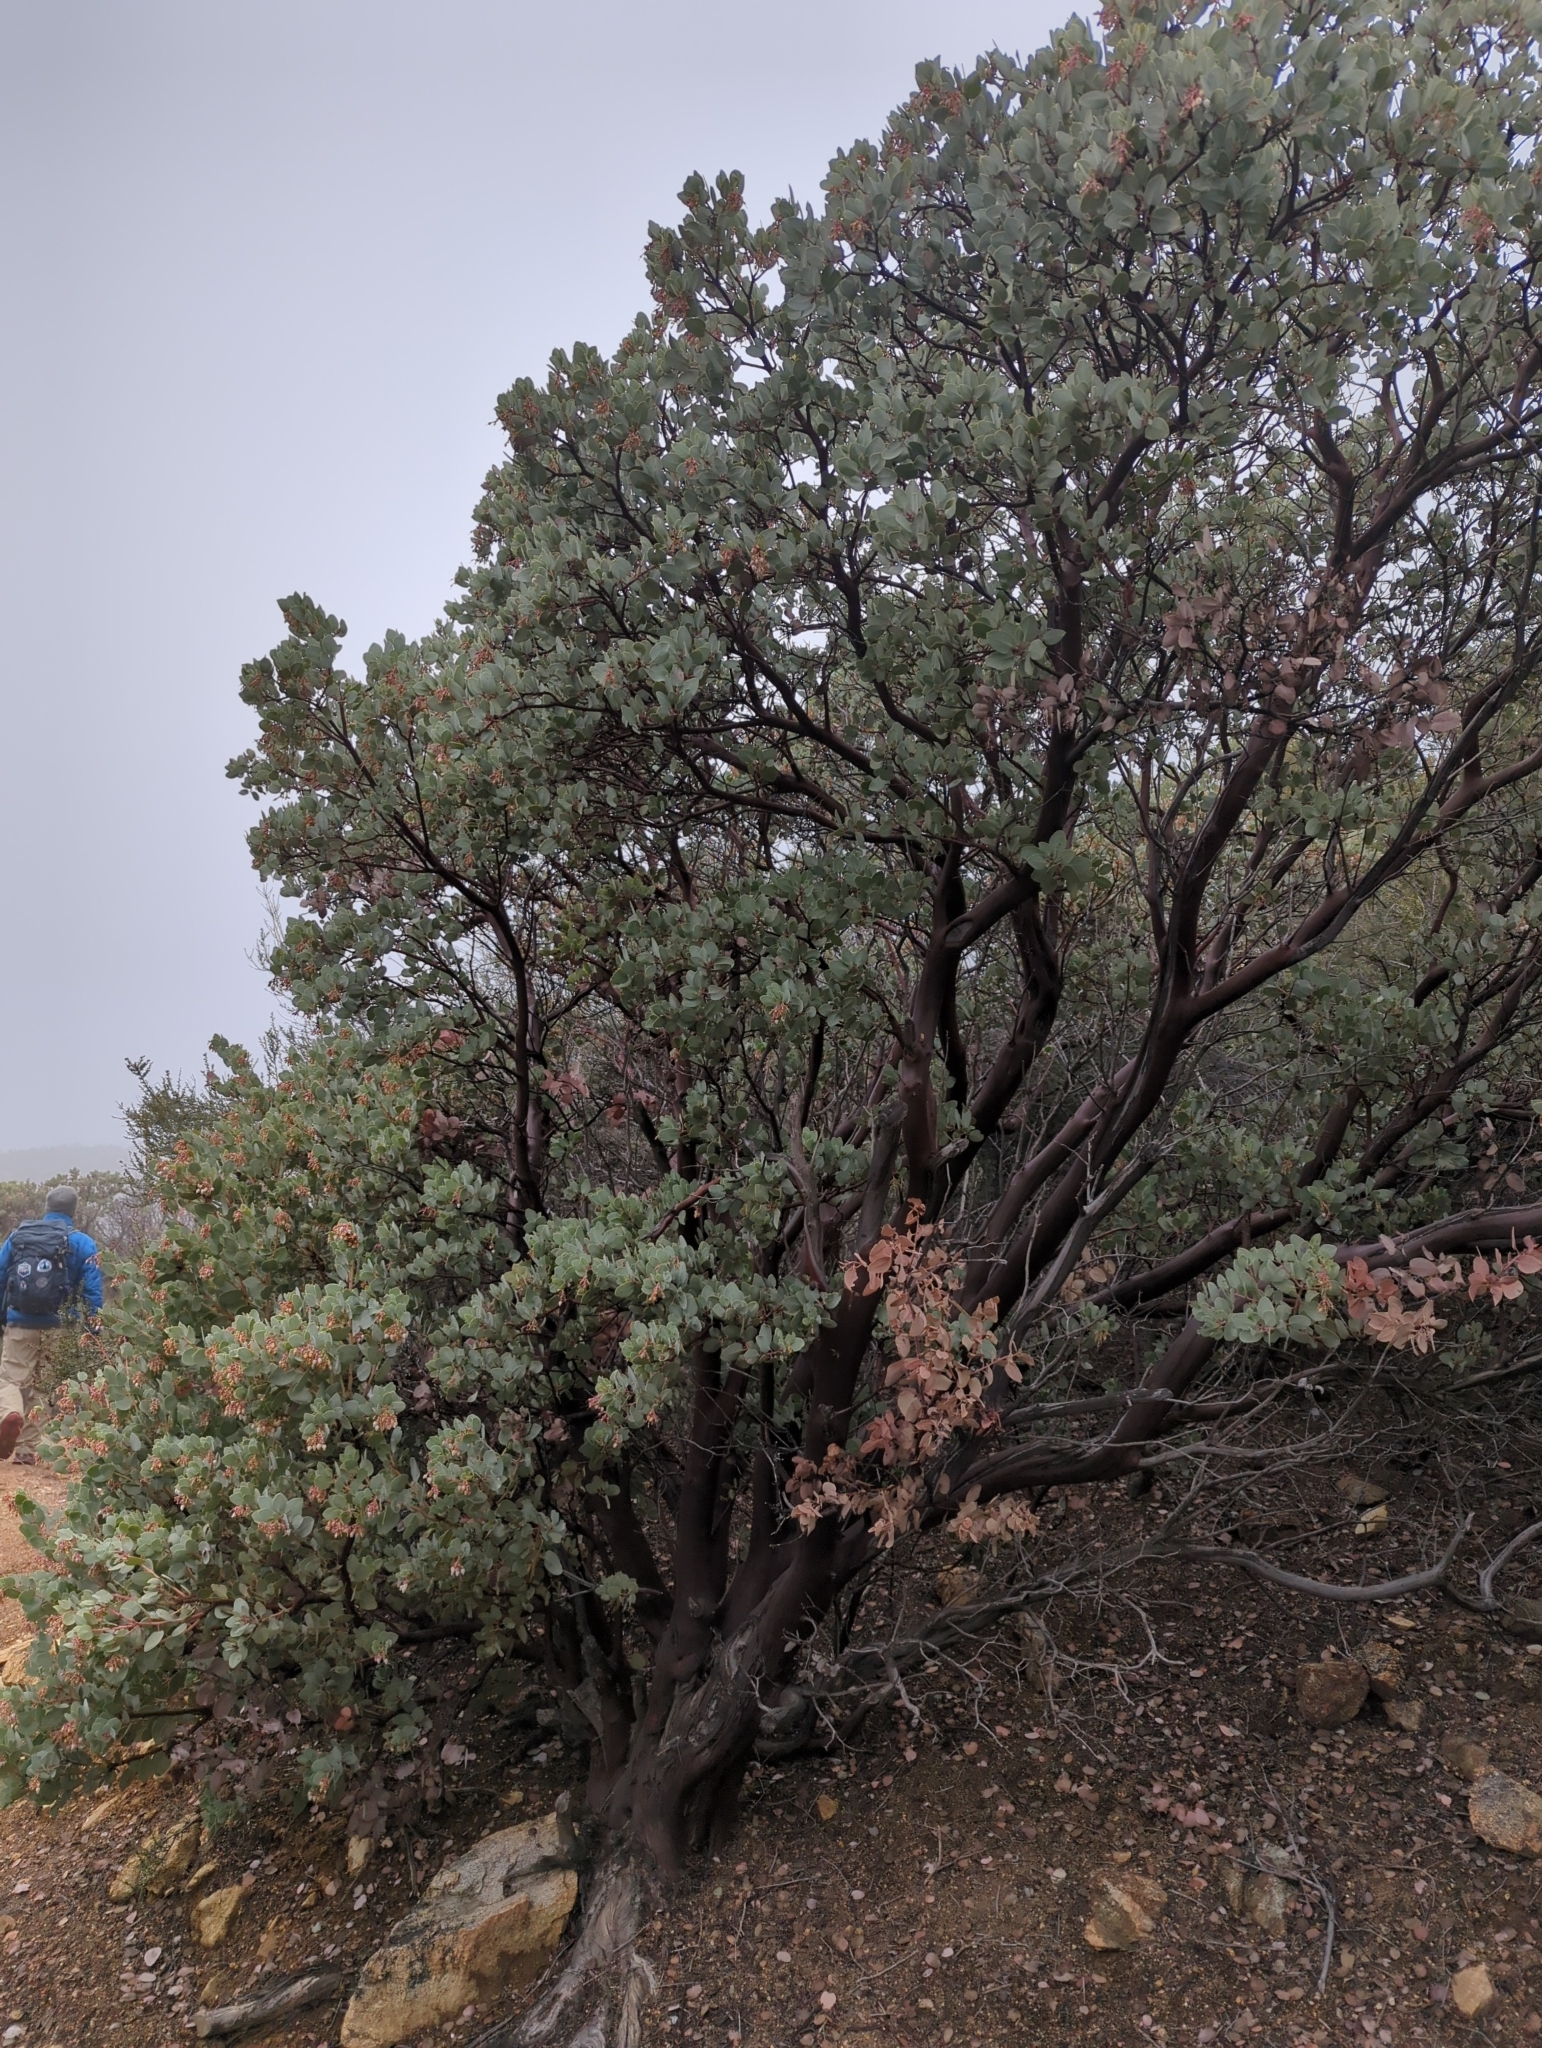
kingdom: Plantae
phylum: Tracheophyta
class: Magnoliopsida
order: Ericales
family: Ericaceae
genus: Arctostaphylos
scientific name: Arctostaphylos glauca
